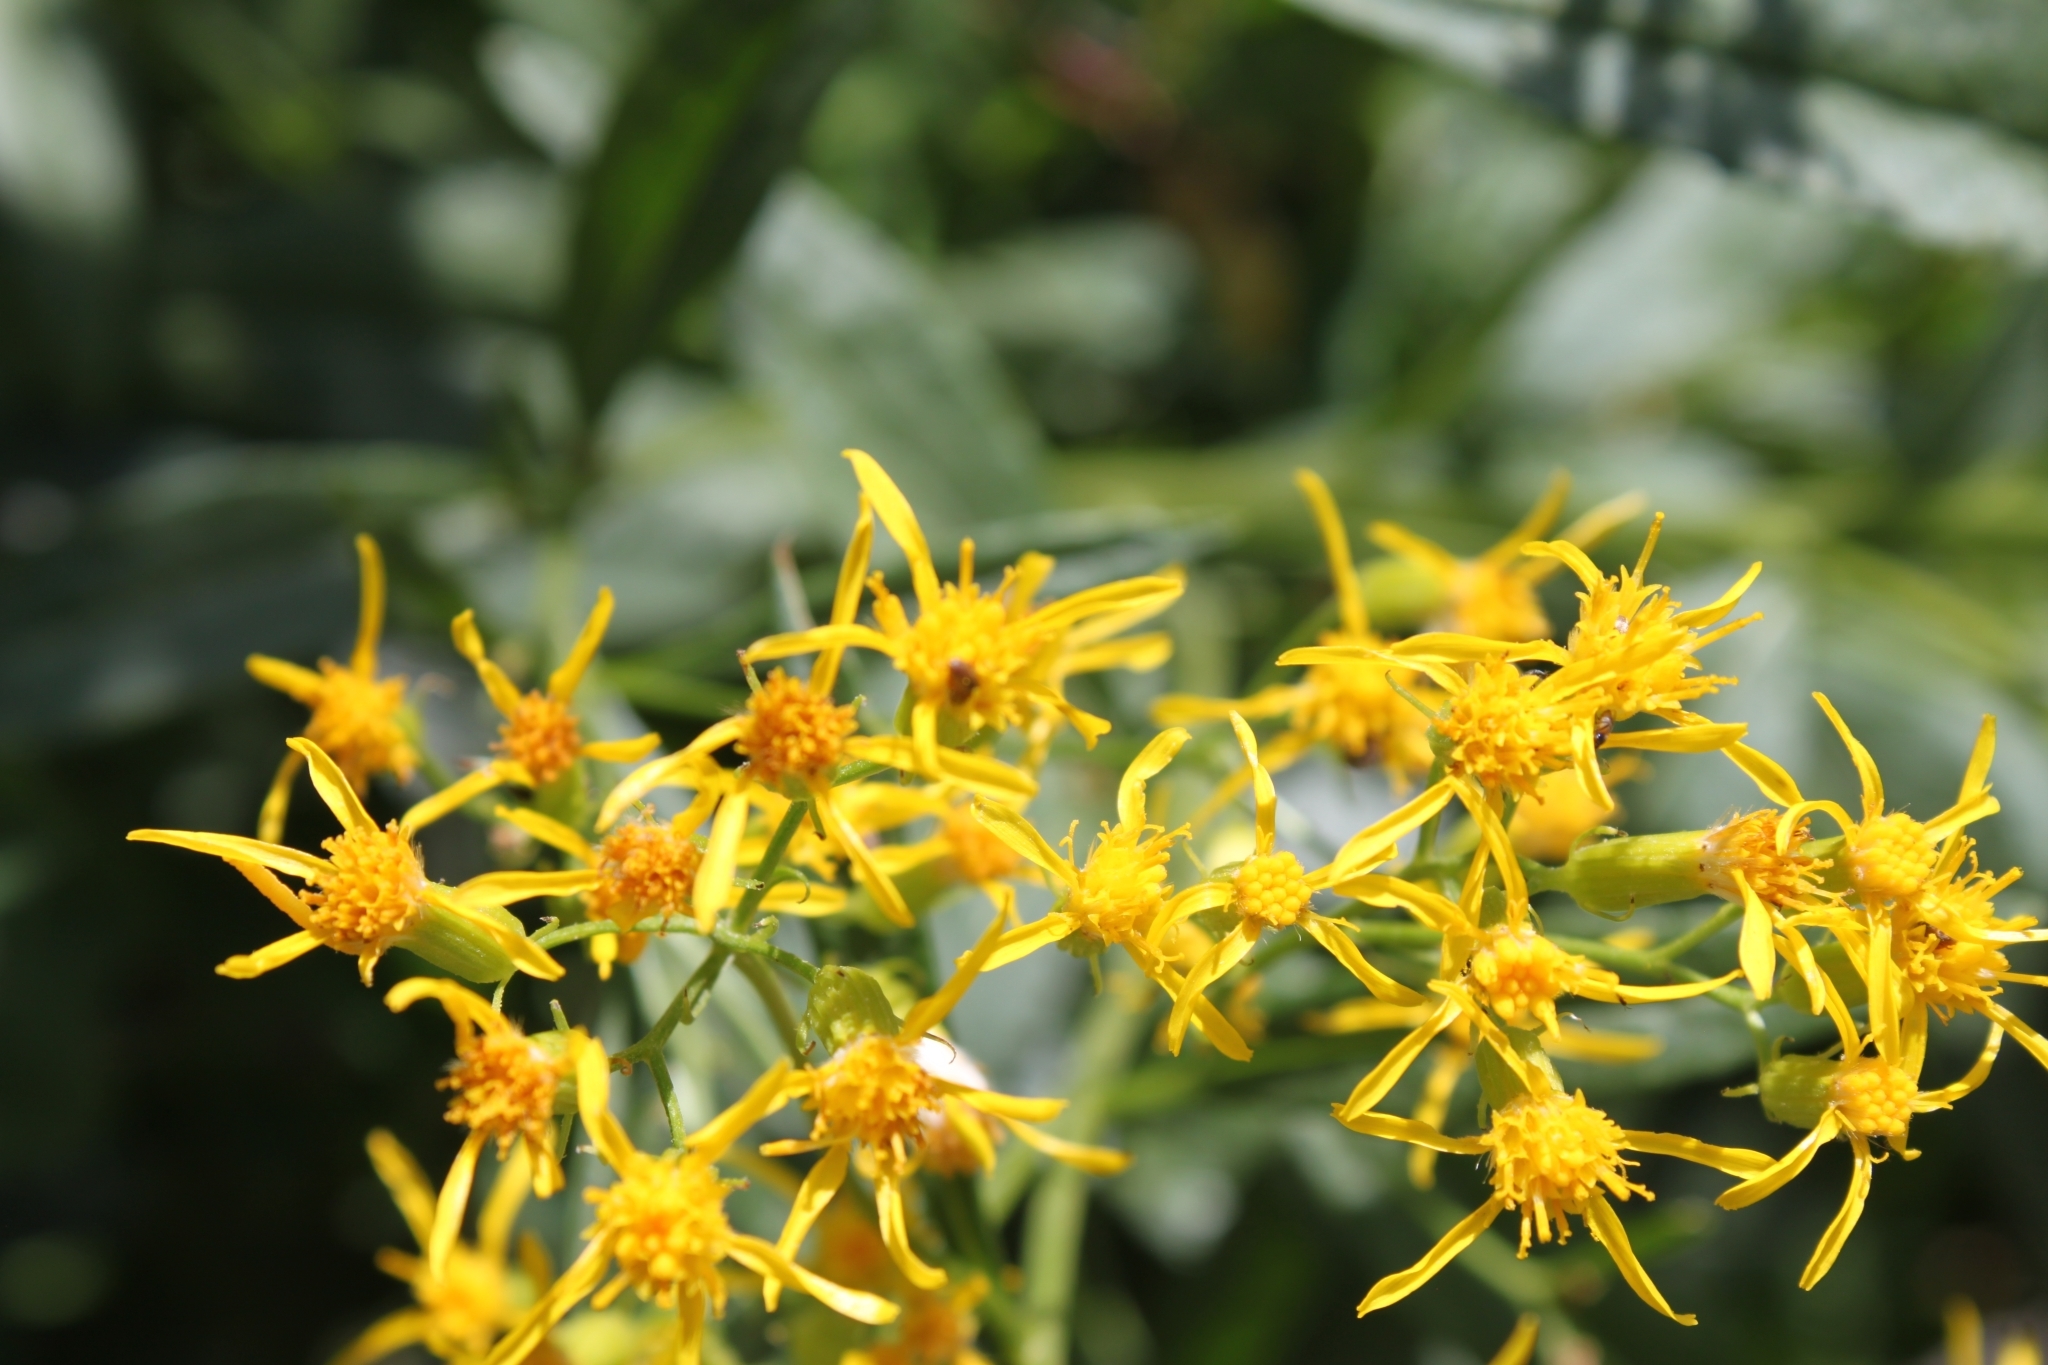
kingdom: Plantae
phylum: Tracheophyta
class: Magnoliopsida
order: Asterales
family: Asteraceae
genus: Senecio
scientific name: Senecio serra
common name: Tall ragwort
